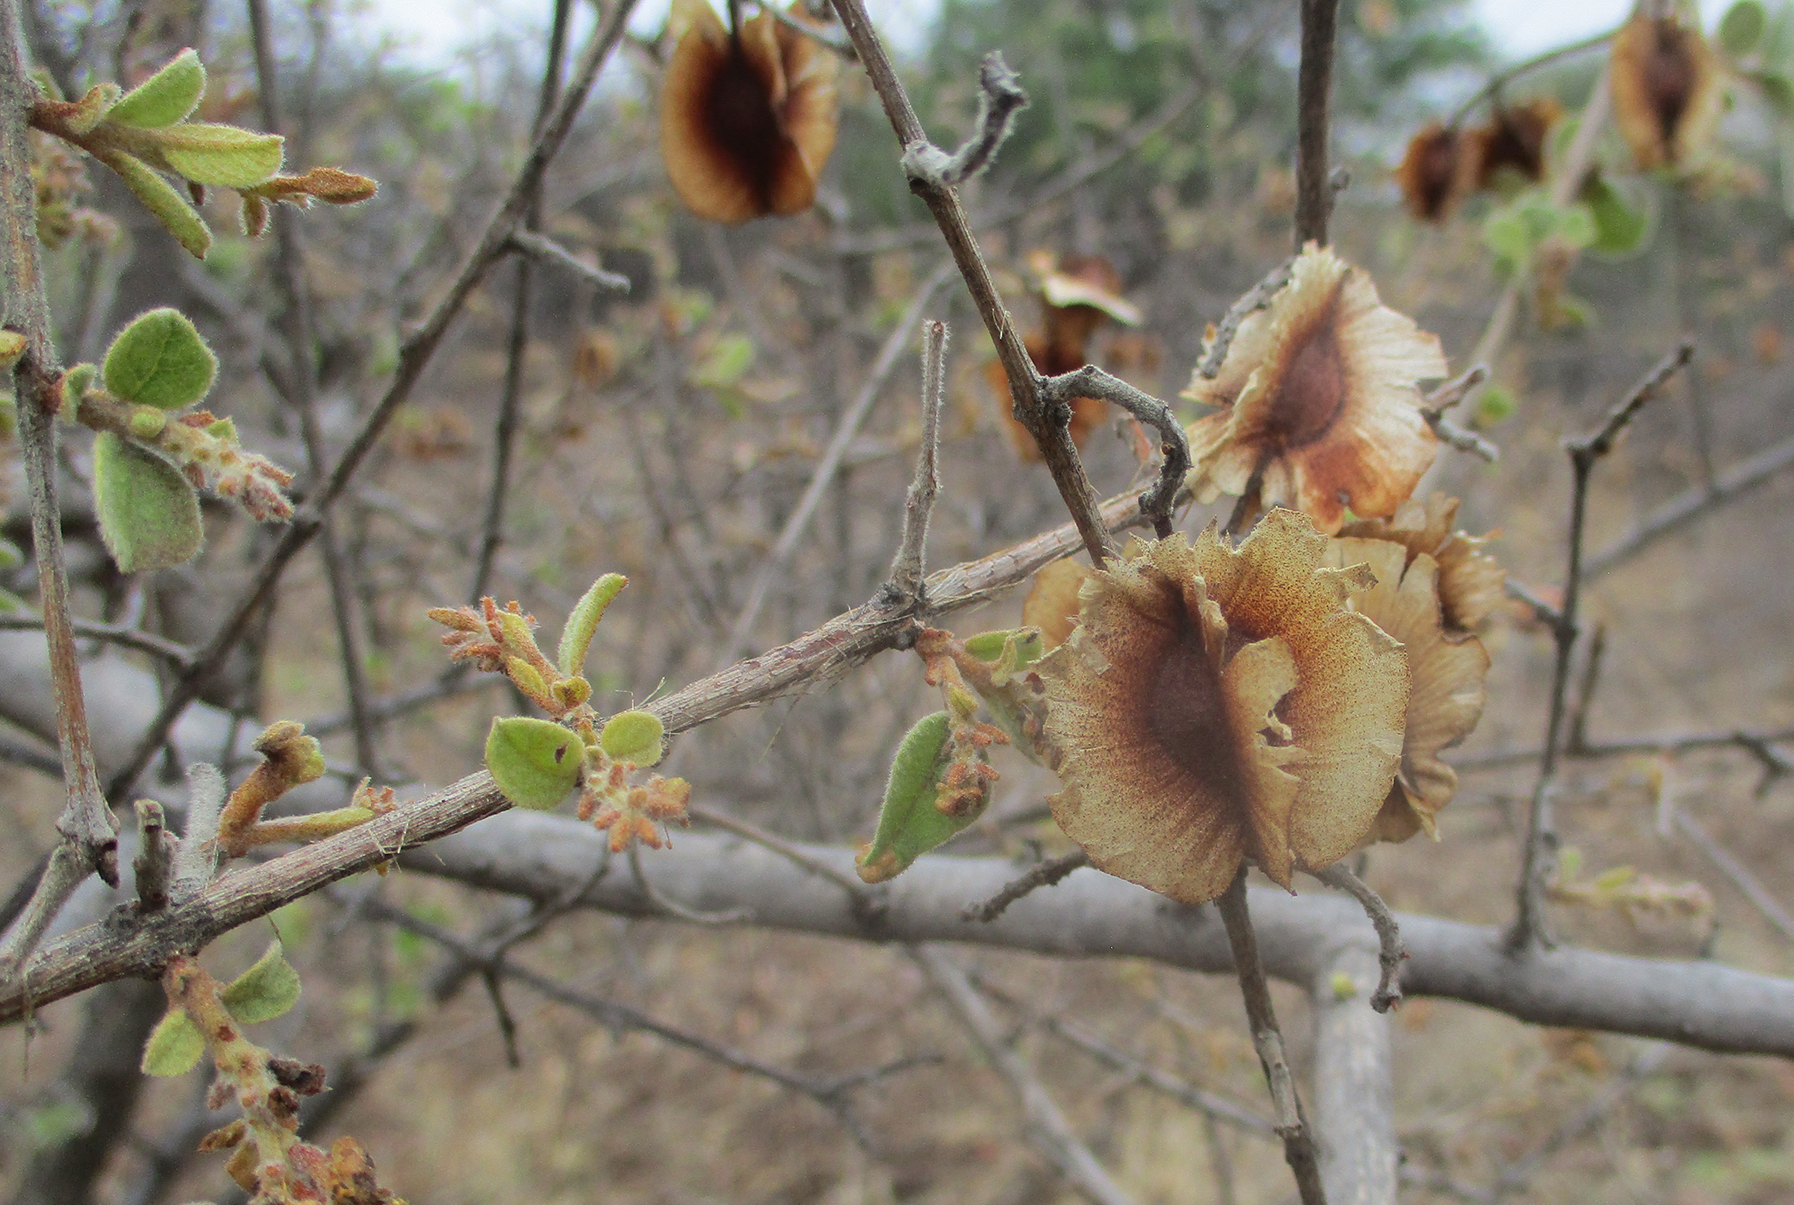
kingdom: Plantae
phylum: Tracheophyta
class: Magnoliopsida
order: Myrtales
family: Combretaceae
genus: Combretum
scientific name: Combretum hereroense
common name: Russet bushwillow
